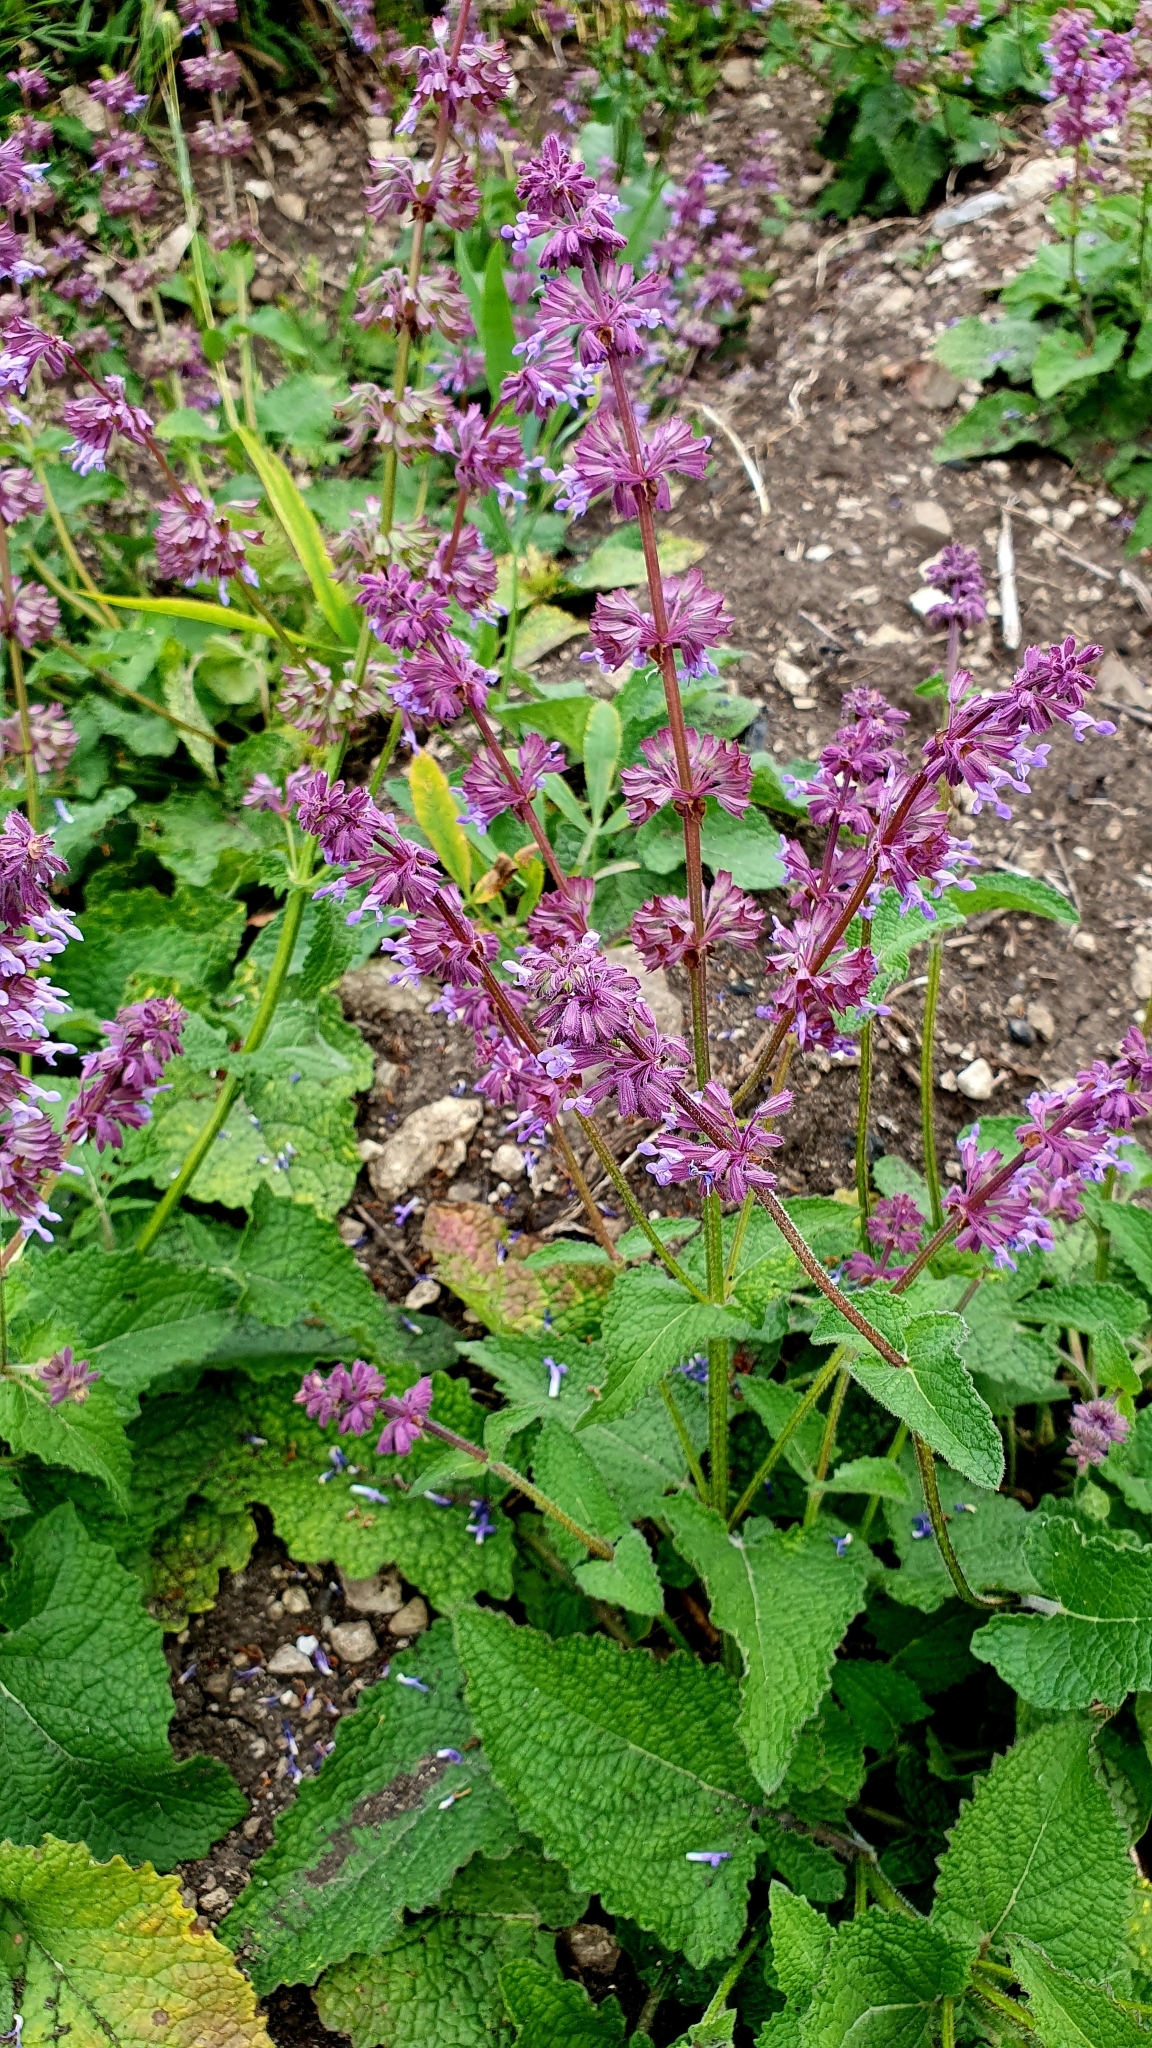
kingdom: Plantae
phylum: Tracheophyta
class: Magnoliopsida
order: Lamiales
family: Lamiaceae
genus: Salvia
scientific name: Salvia verticillata
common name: Whorled clary
